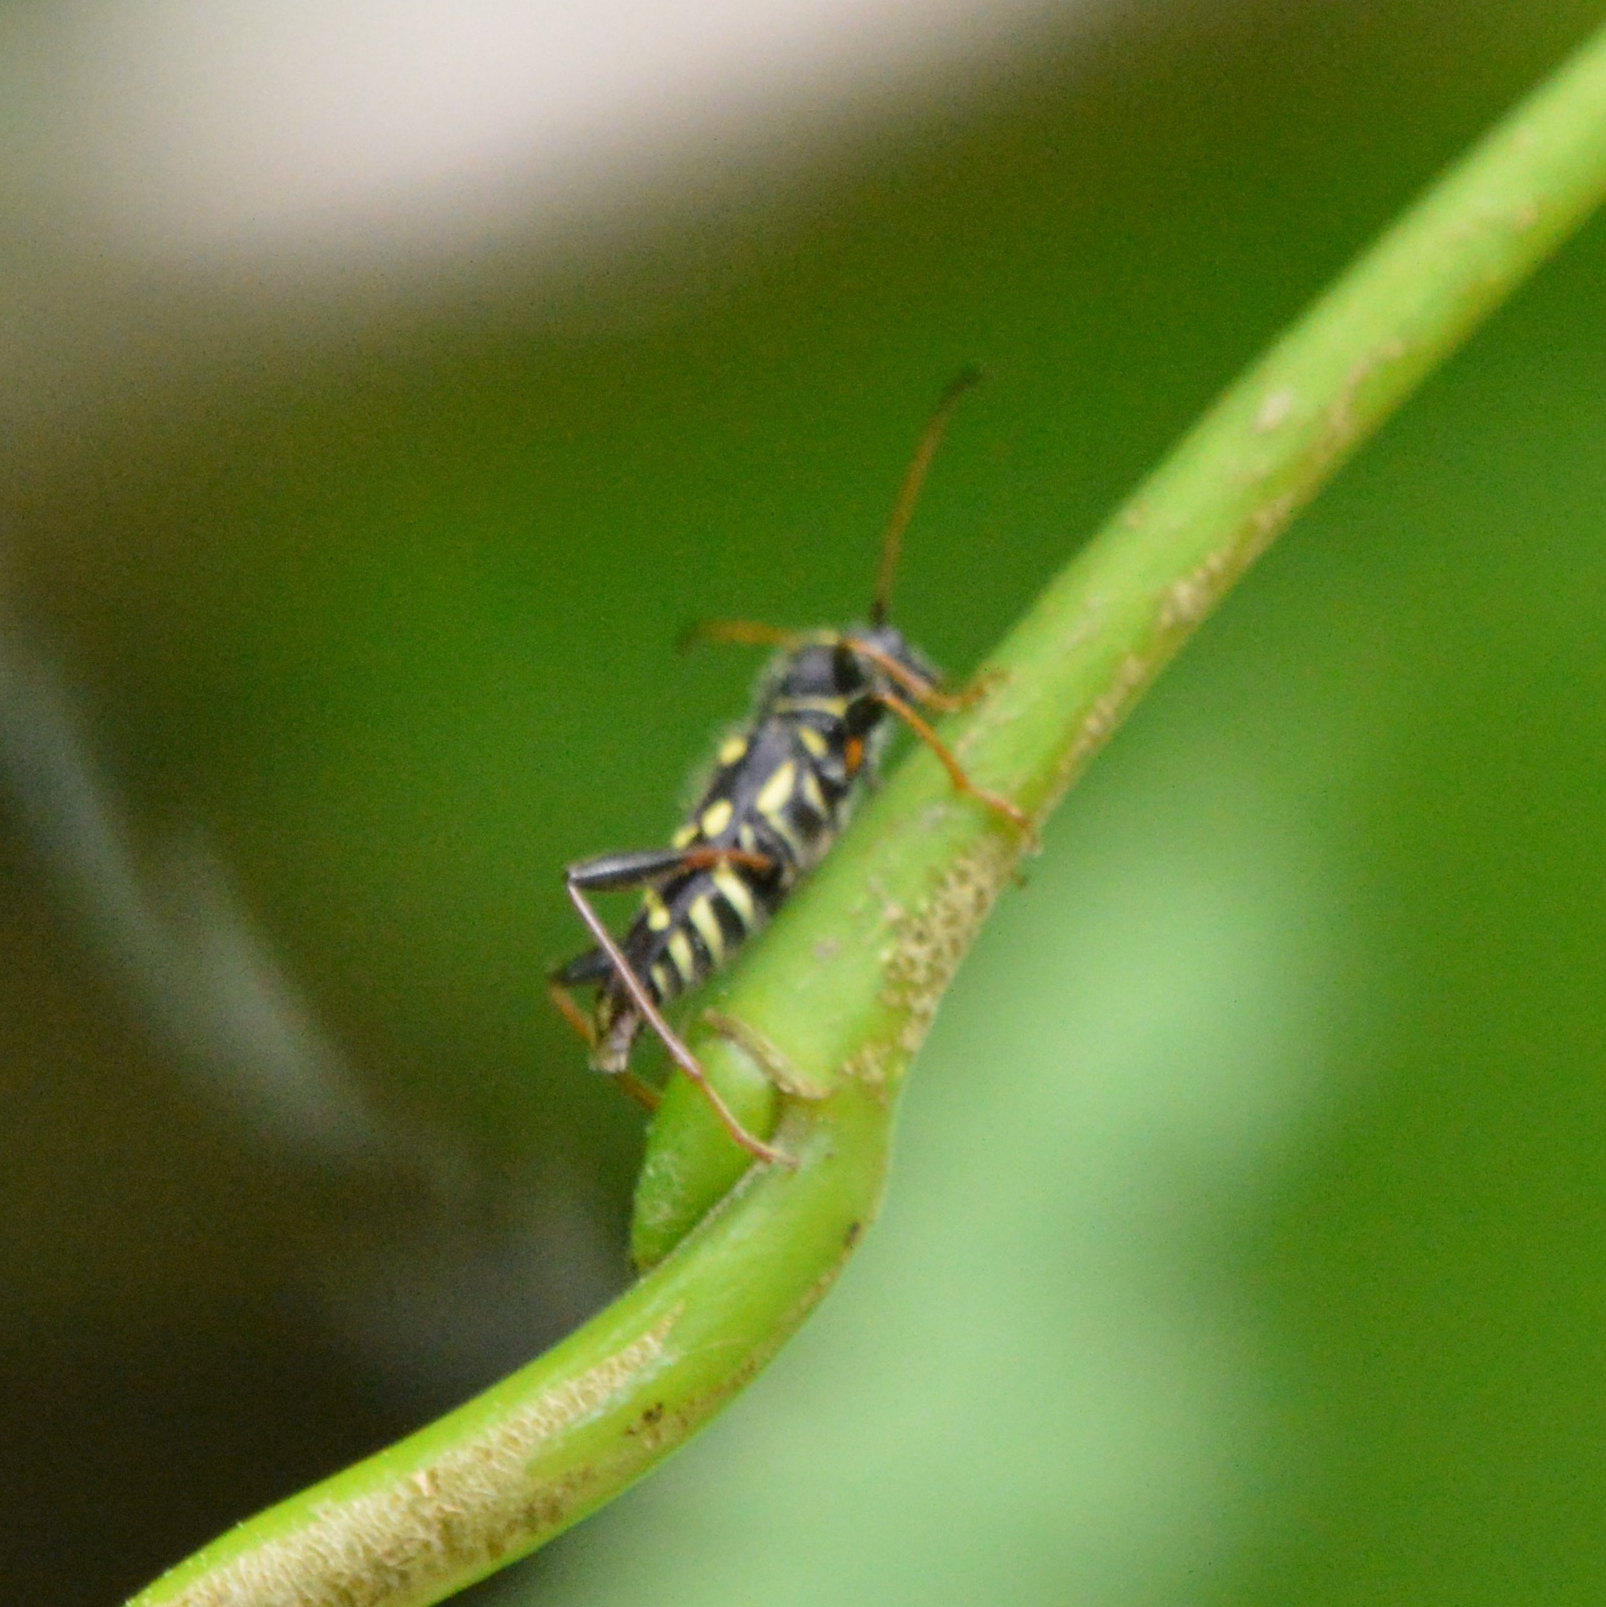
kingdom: Animalia
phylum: Arthropoda
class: Insecta
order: Coleoptera
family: Cerambycidae
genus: Clytus
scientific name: Clytus ruricola
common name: Round-necked longhorn beetle
